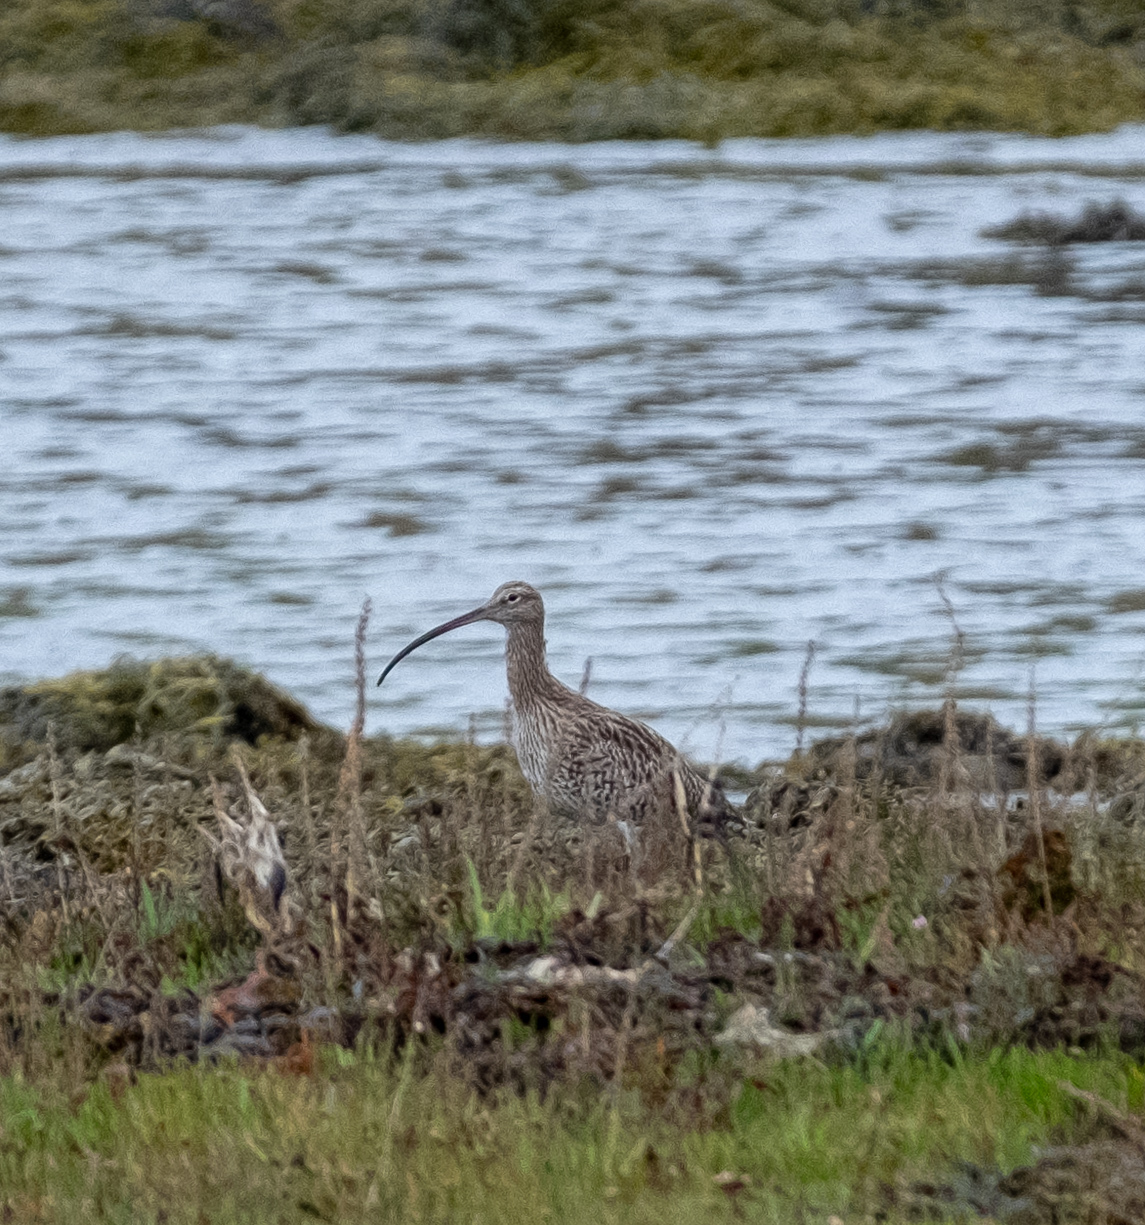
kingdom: Animalia
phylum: Chordata
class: Aves
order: Charadriiformes
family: Scolopacidae
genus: Numenius
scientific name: Numenius arquata
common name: Eurasian curlew
